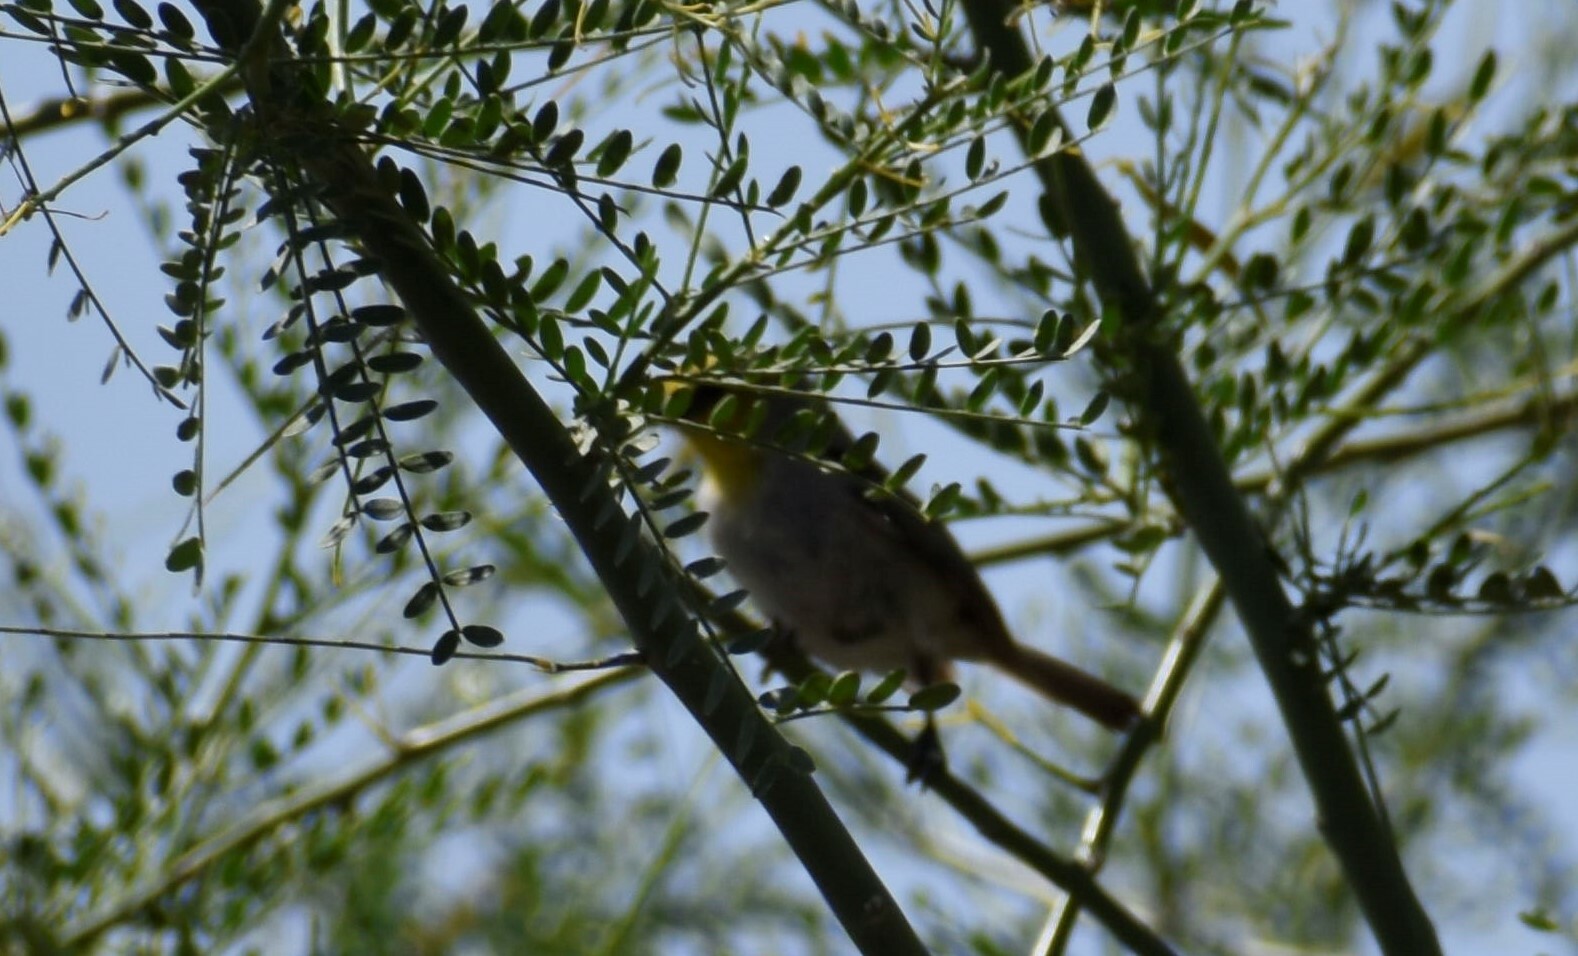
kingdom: Animalia
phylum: Chordata
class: Aves
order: Passeriformes
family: Remizidae
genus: Auriparus
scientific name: Auriparus flaviceps
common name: Verdin
